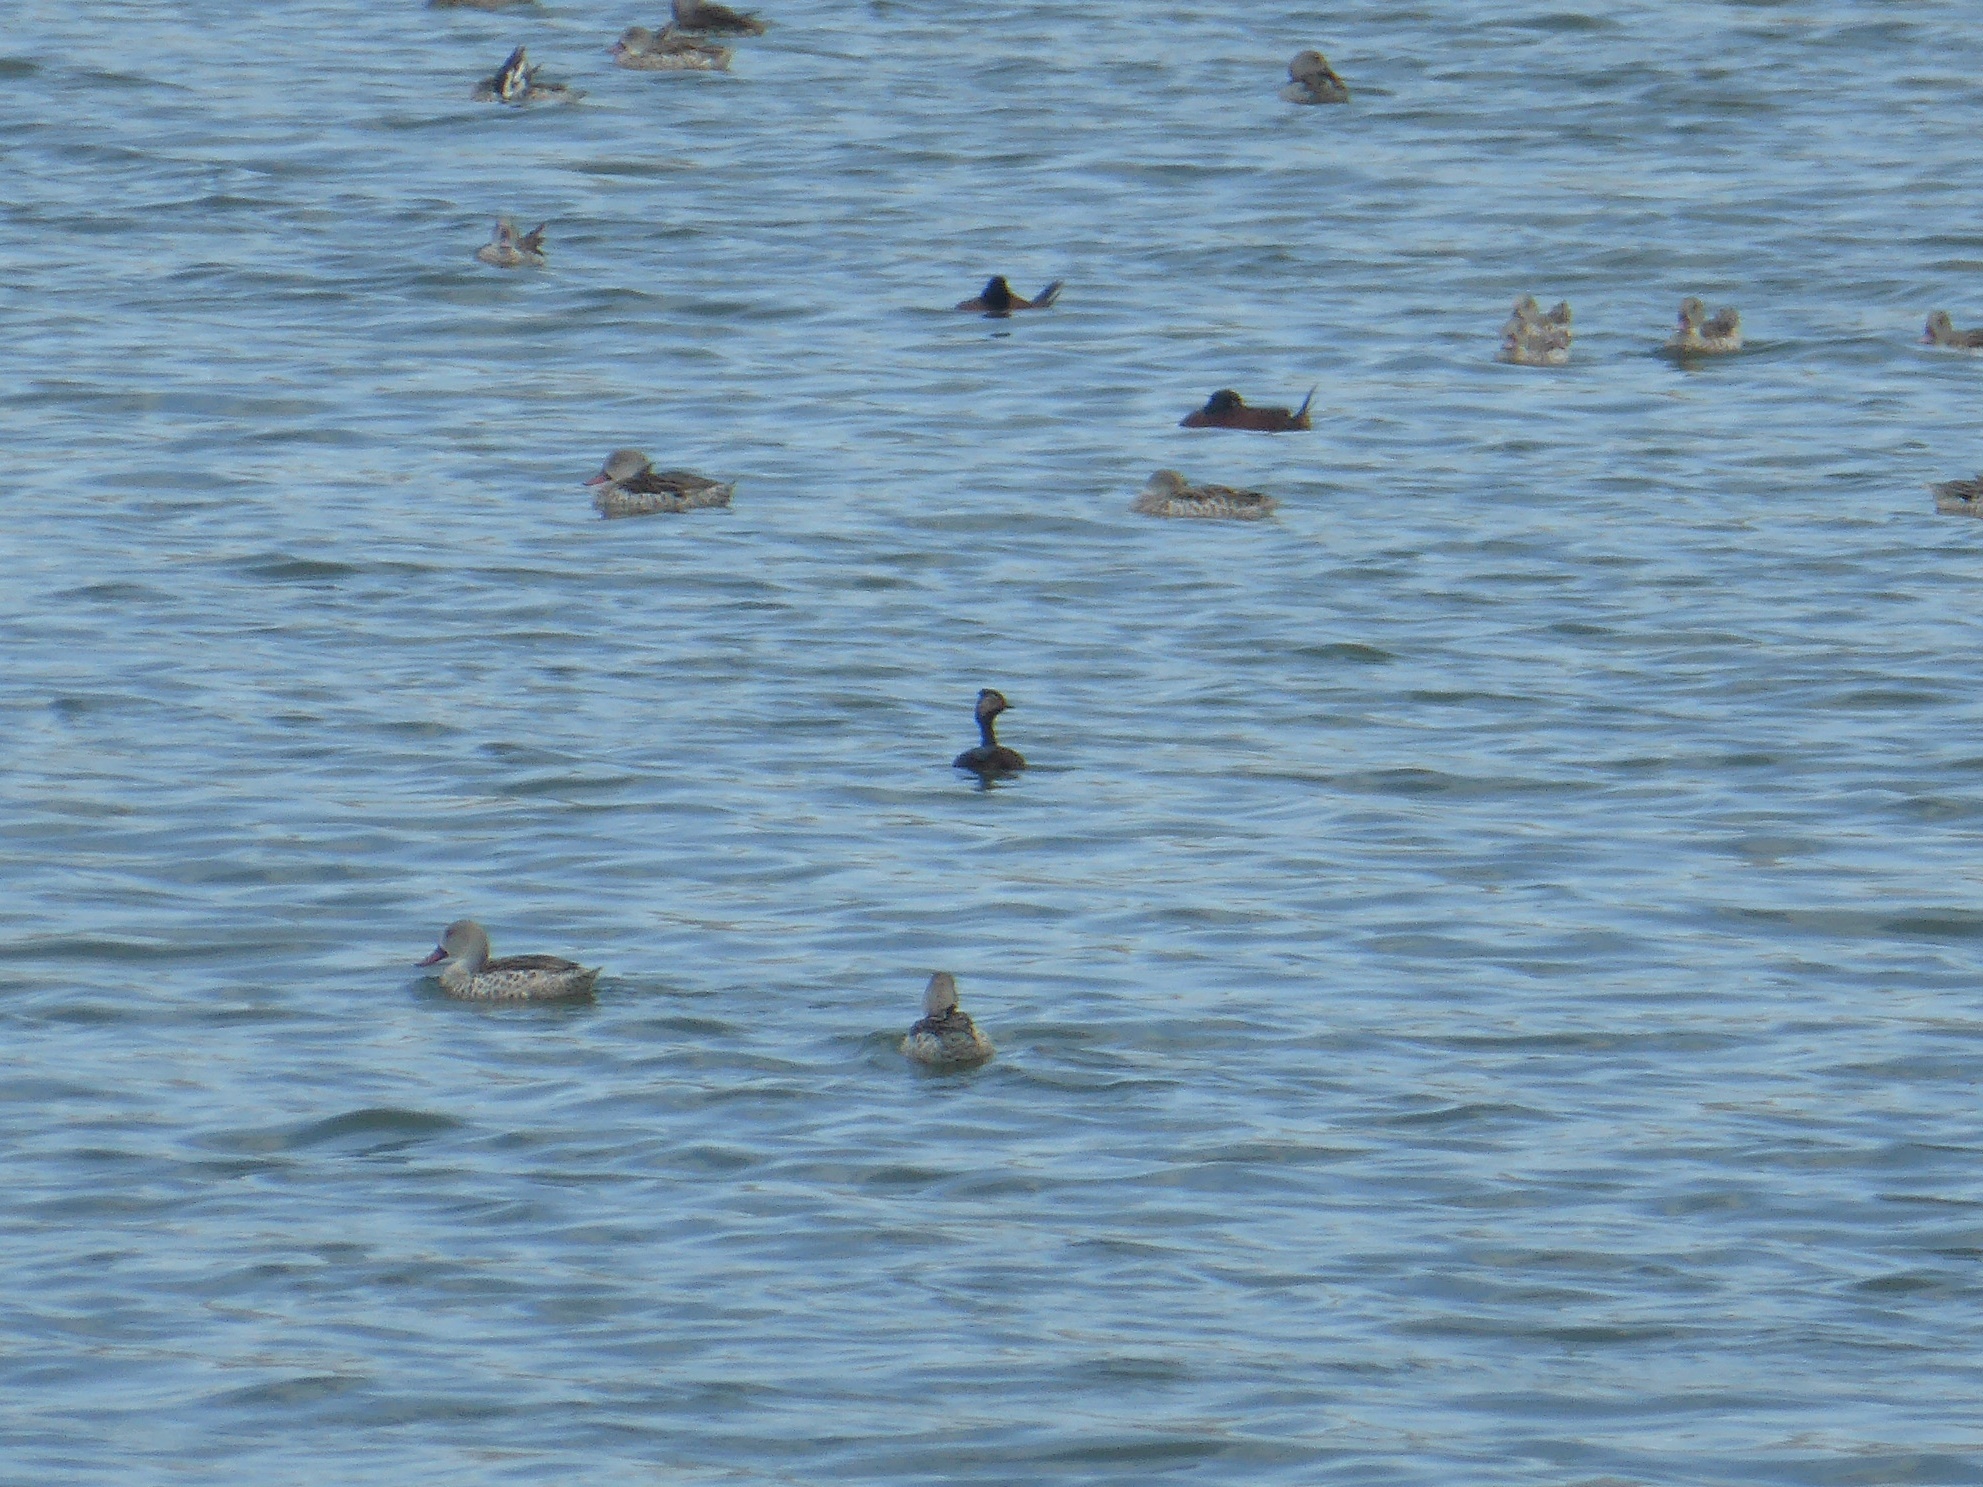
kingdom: Animalia
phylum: Chordata
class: Aves
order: Podicipediformes
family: Podicipedidae
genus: Podiceps
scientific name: Podiceps nigricollis
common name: Black-necked grebe
